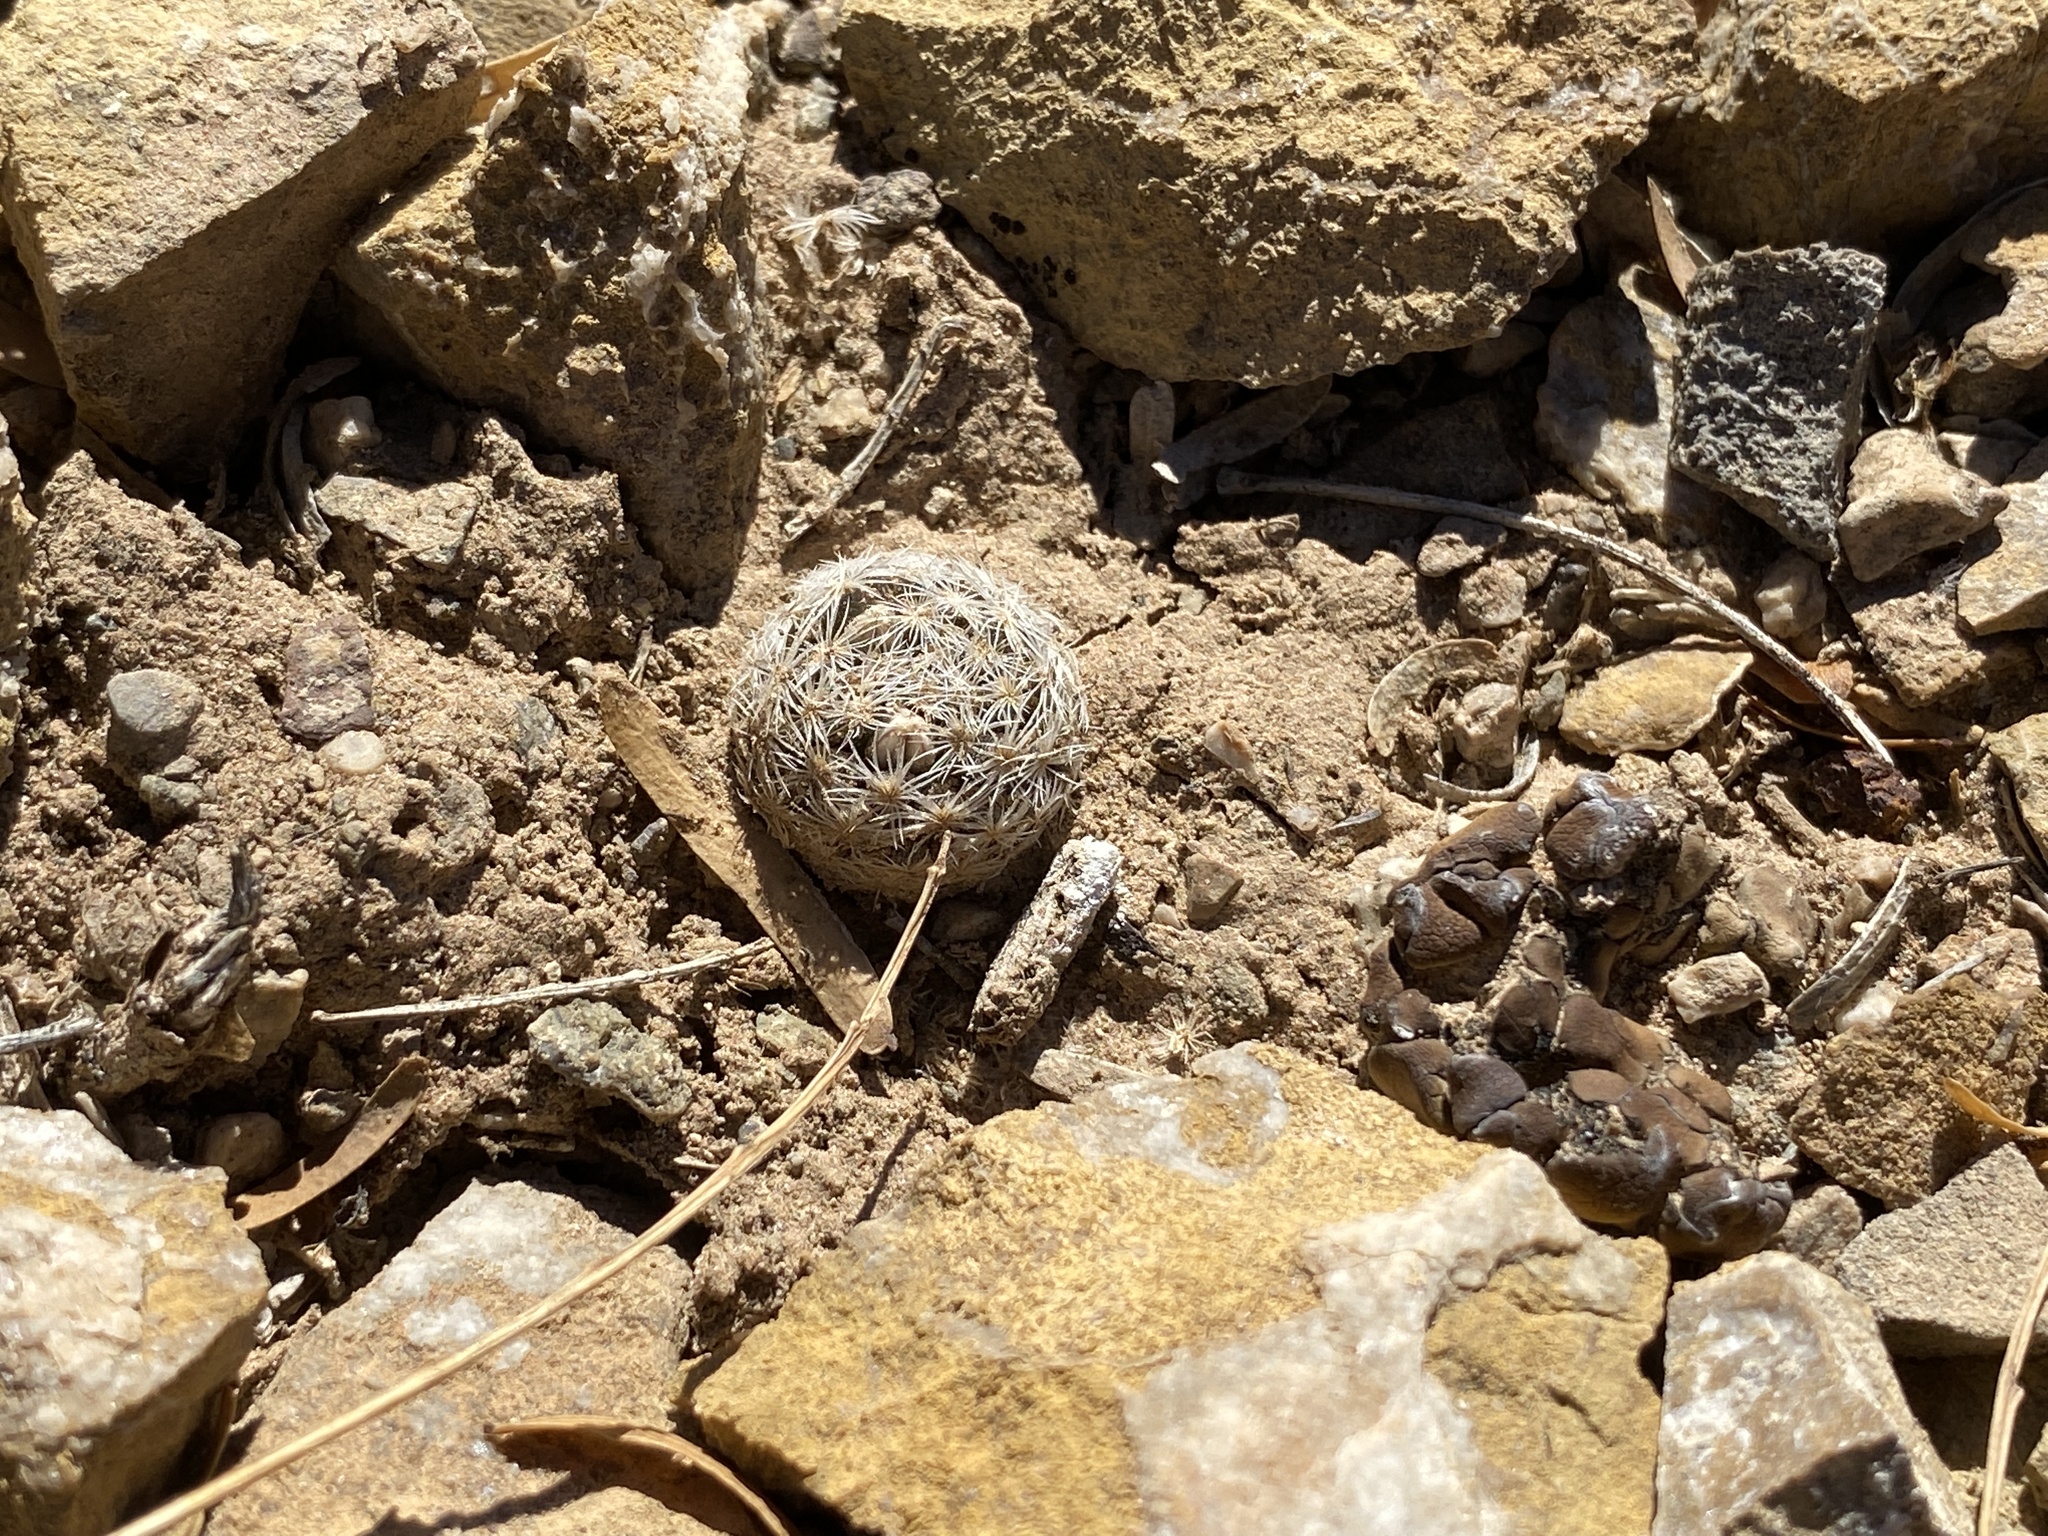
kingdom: Plantae
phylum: Tracheophyta
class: Magnoliopsida
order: Caryophyllales
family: Cactaceae
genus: Mammillaria
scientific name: Mammillaria lasiacantha
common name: Lace-spine nipple cactus
